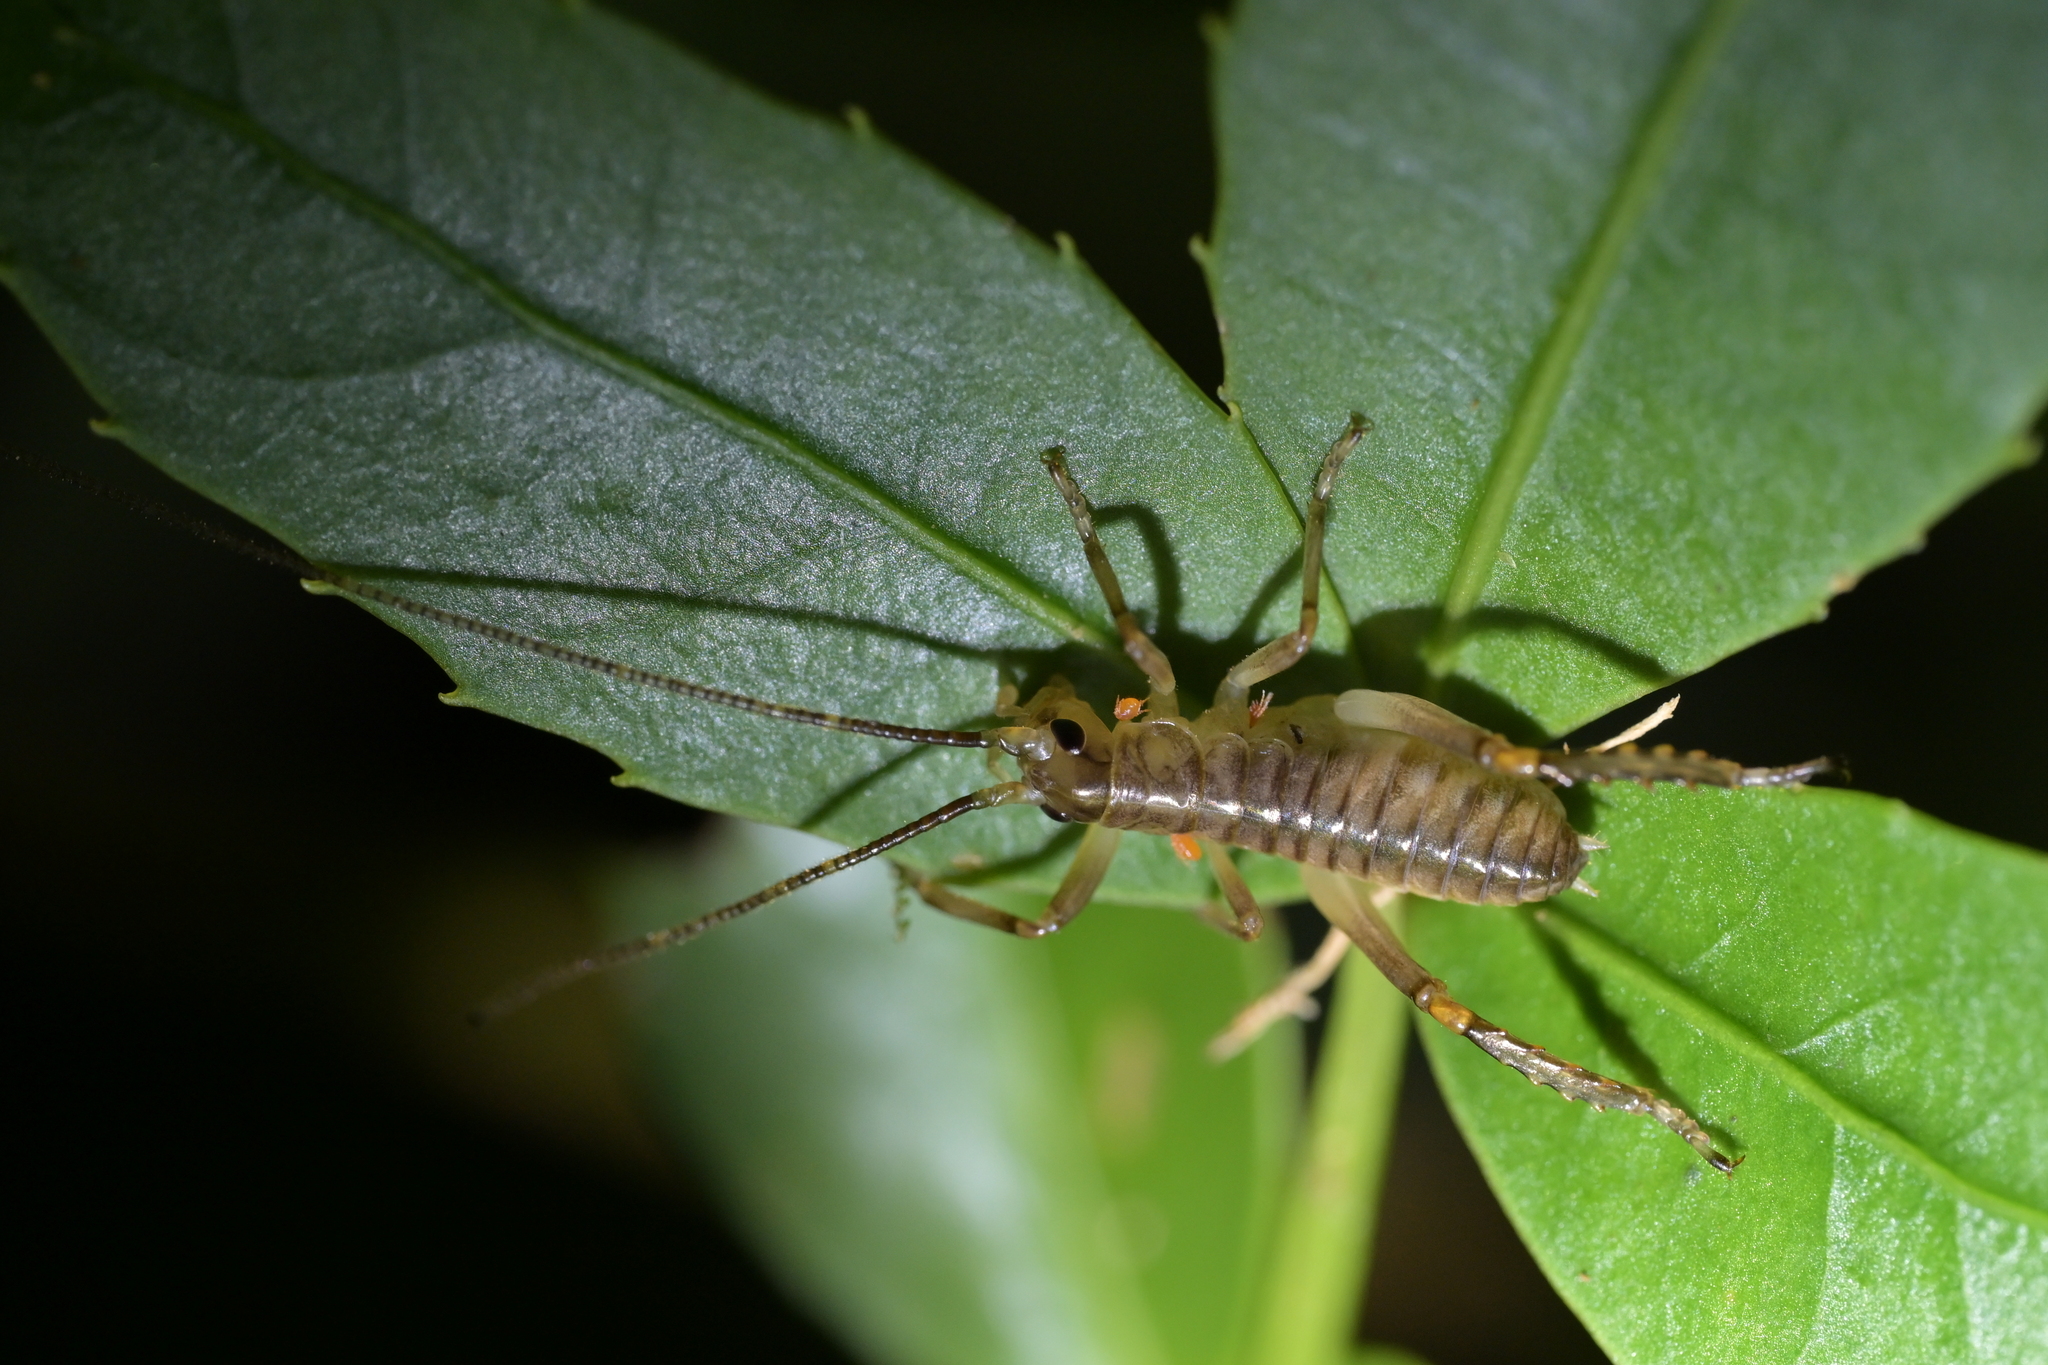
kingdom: Animalia
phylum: Arthropoda
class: Insecta
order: Orthoptera
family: Anostostomatidae
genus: Hemideina
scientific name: Hemideina crassidens
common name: Wellington tree weta
